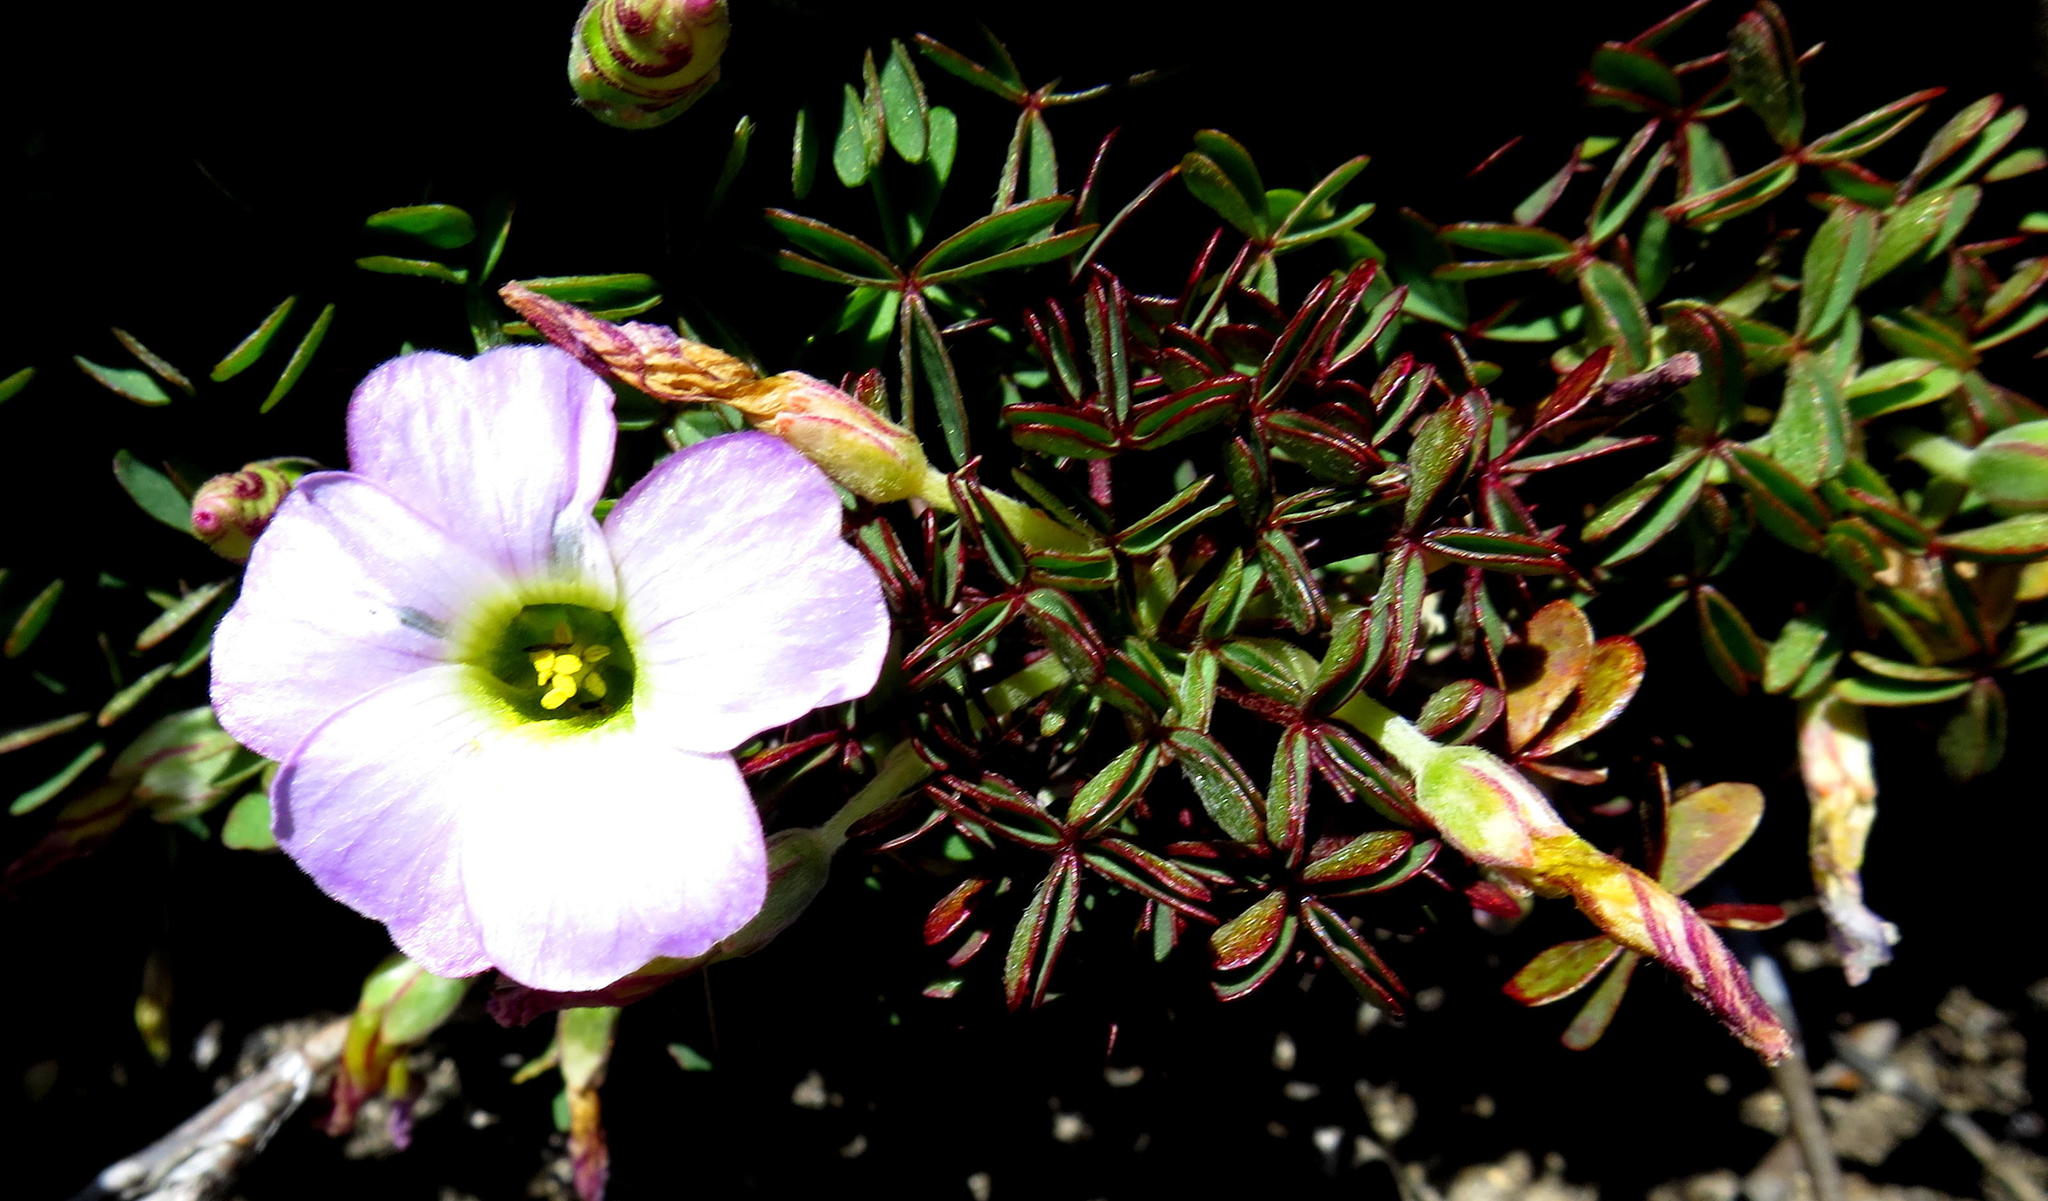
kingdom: Plantae
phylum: Tracheophyta
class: Magnoliopsida
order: Oxalidales
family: Oxalidaceae
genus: Oxalis
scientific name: Oxalis heterophylla
